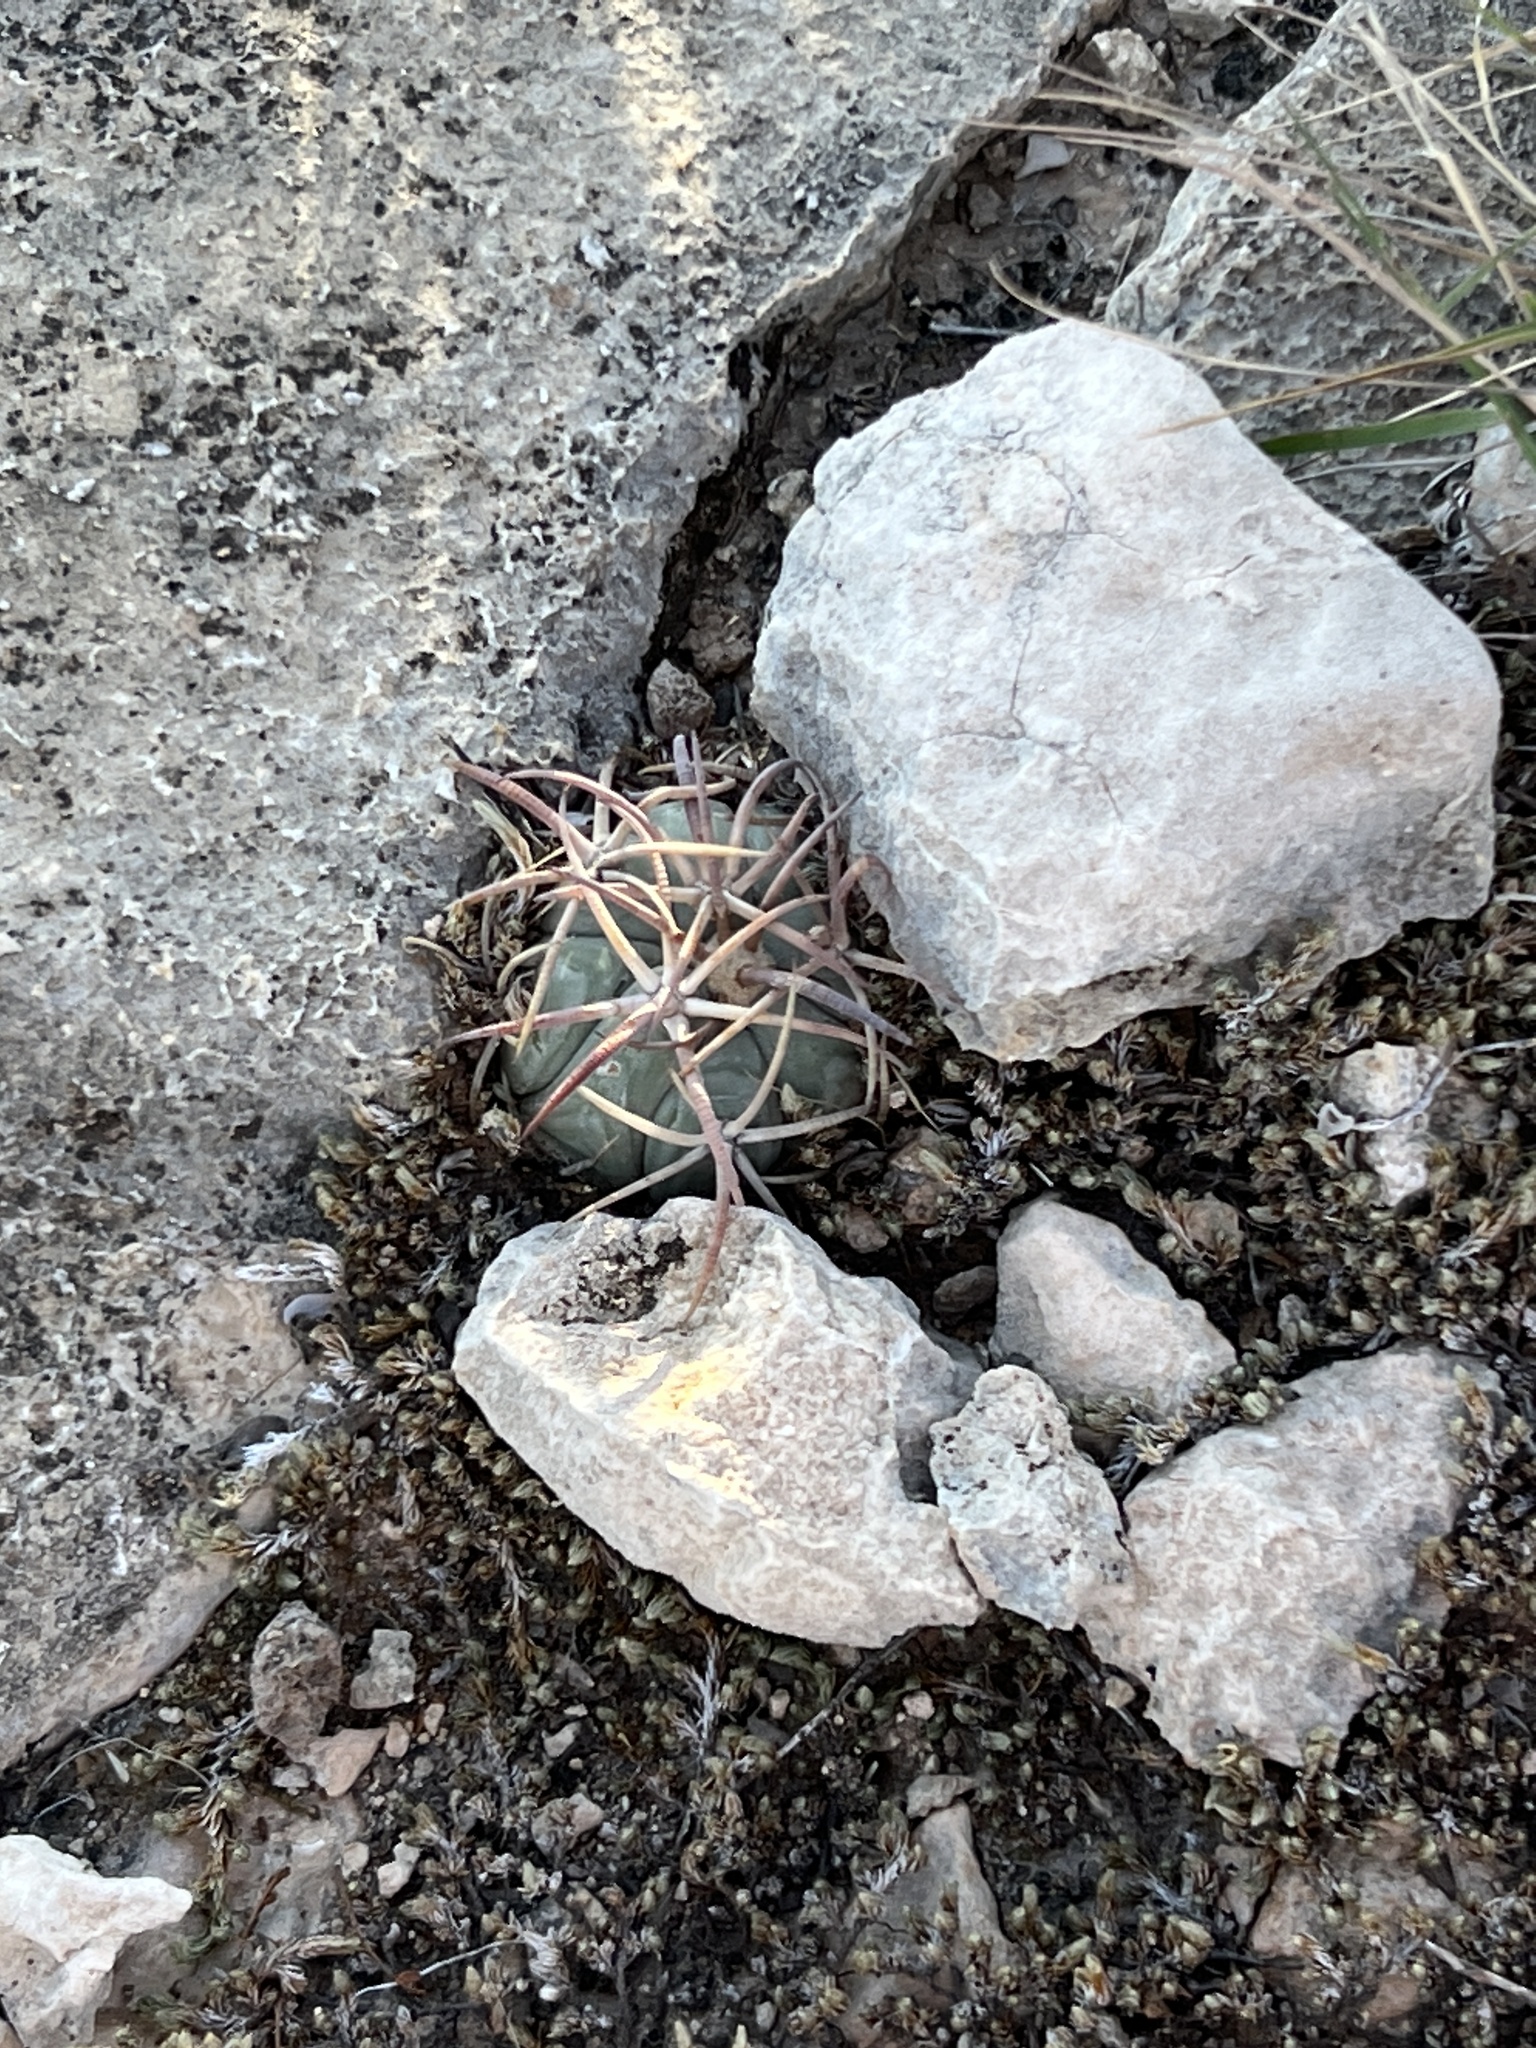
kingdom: Plantae
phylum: Tracheophyta
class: Magnoliopsida
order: Caryophyllales
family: Cactaceae
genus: Echinocactus
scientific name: Echinocactus horizonthalonius
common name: Devilshead
